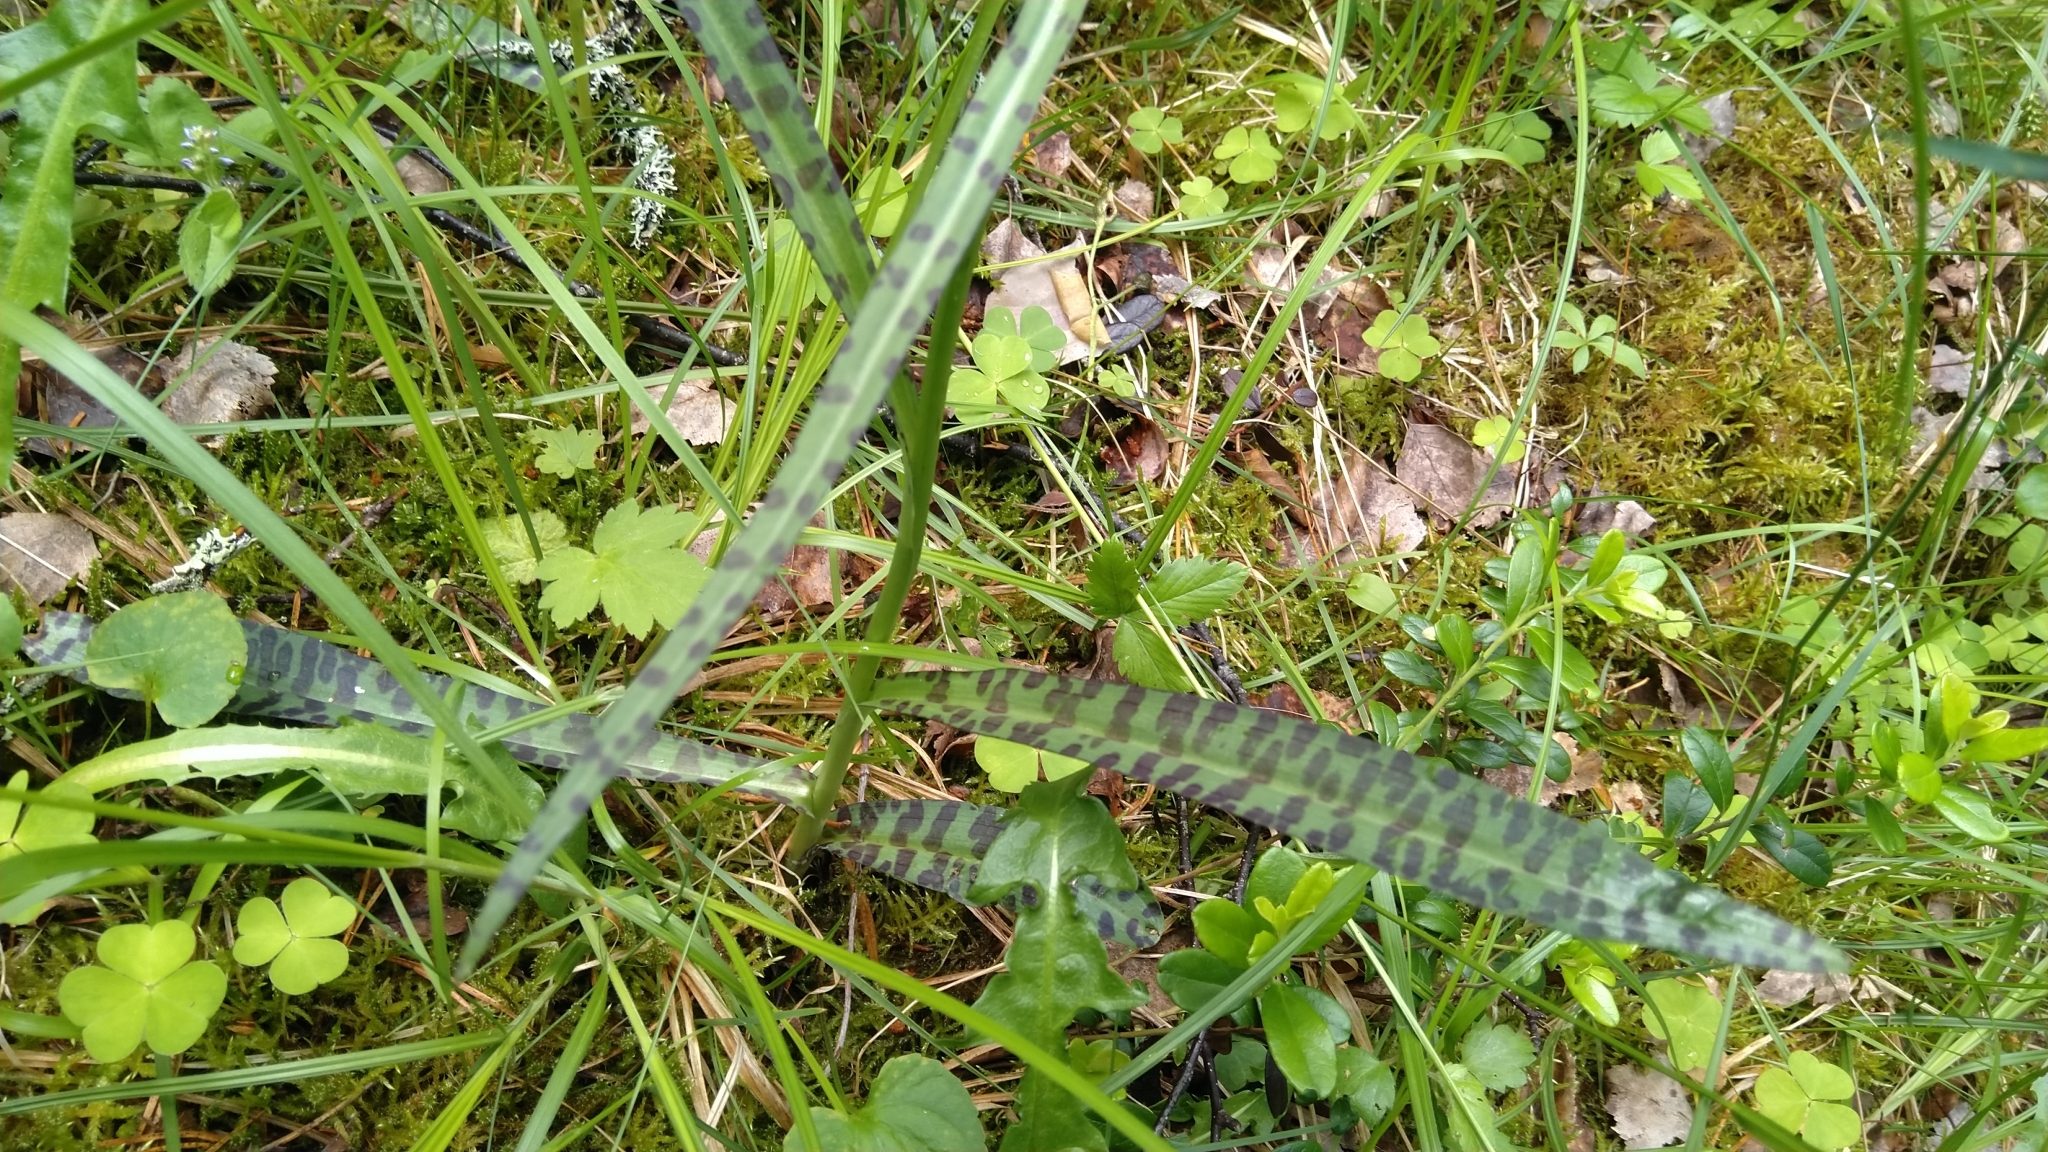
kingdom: Plantae
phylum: Tracheophyta
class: Liliopsida
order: Asparagales
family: Orchidaceae
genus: Dactylorhiza
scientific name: Dactylorhiza maculata
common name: Heath spotted-orchid
